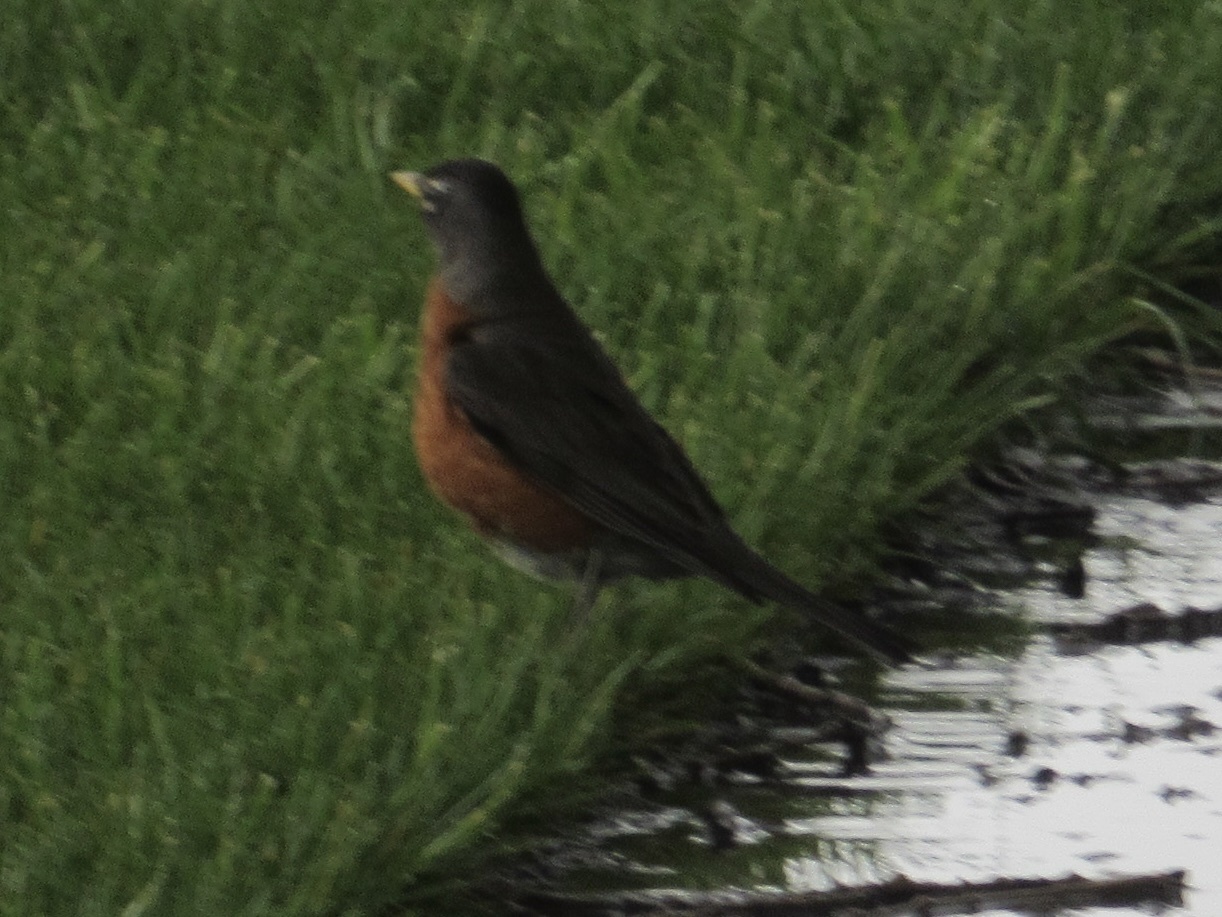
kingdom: Animalia
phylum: Chordata
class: Aves
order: Passeriformes
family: Turdidae
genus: Turdus
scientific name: Turdus migratorius
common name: American robin
